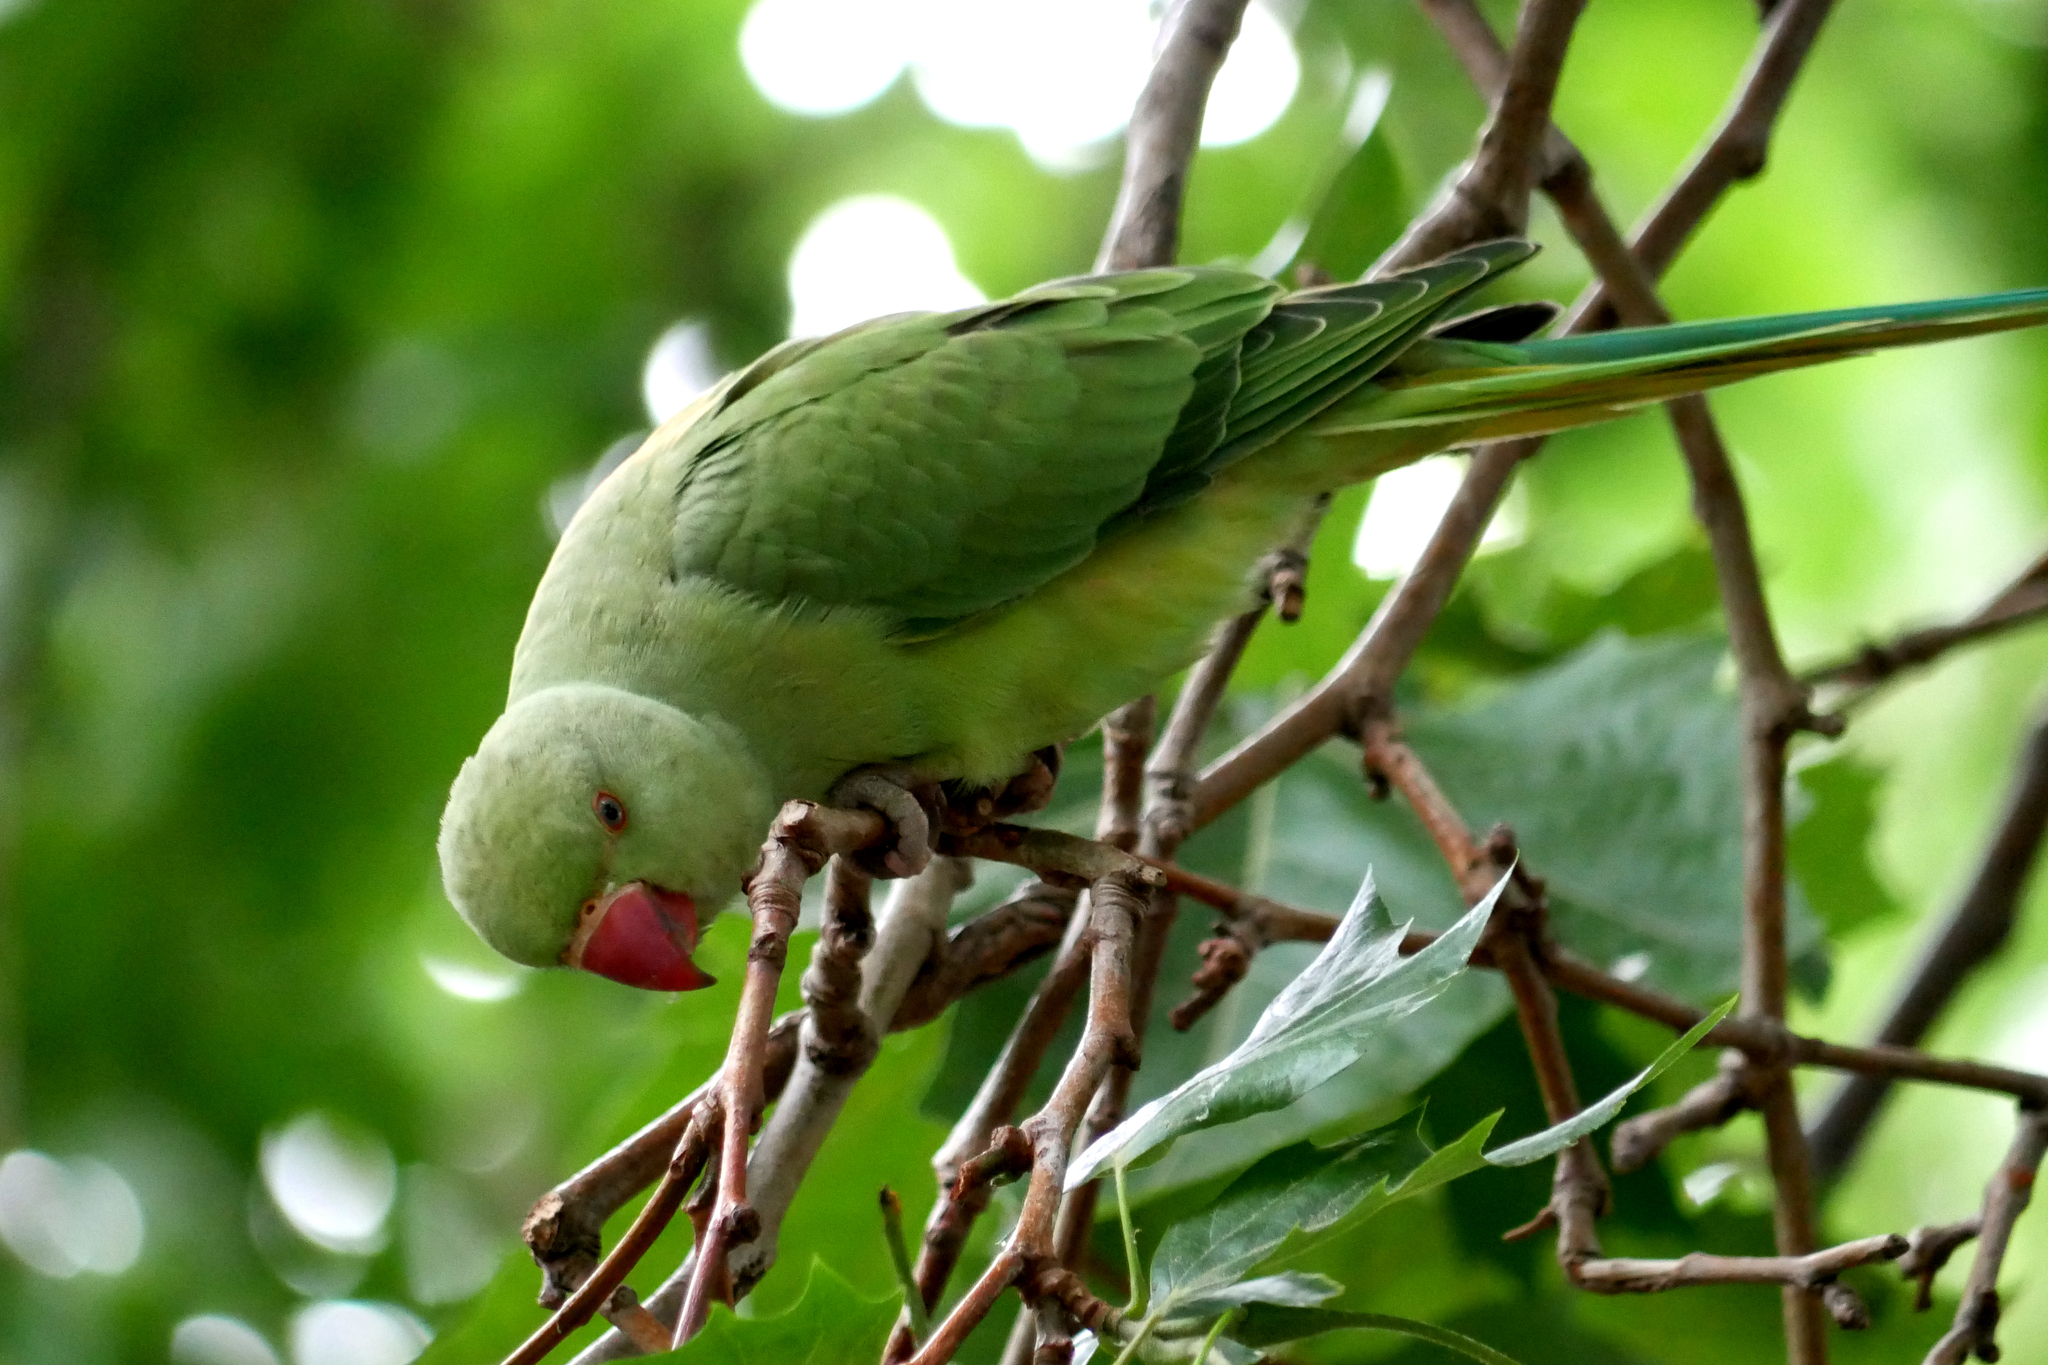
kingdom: Animalia
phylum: Chordata
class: Aves
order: Psittaciformes
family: Psittacidae
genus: Psittacula
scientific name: Psittacula krameri
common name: Rose-ringed parakeet
